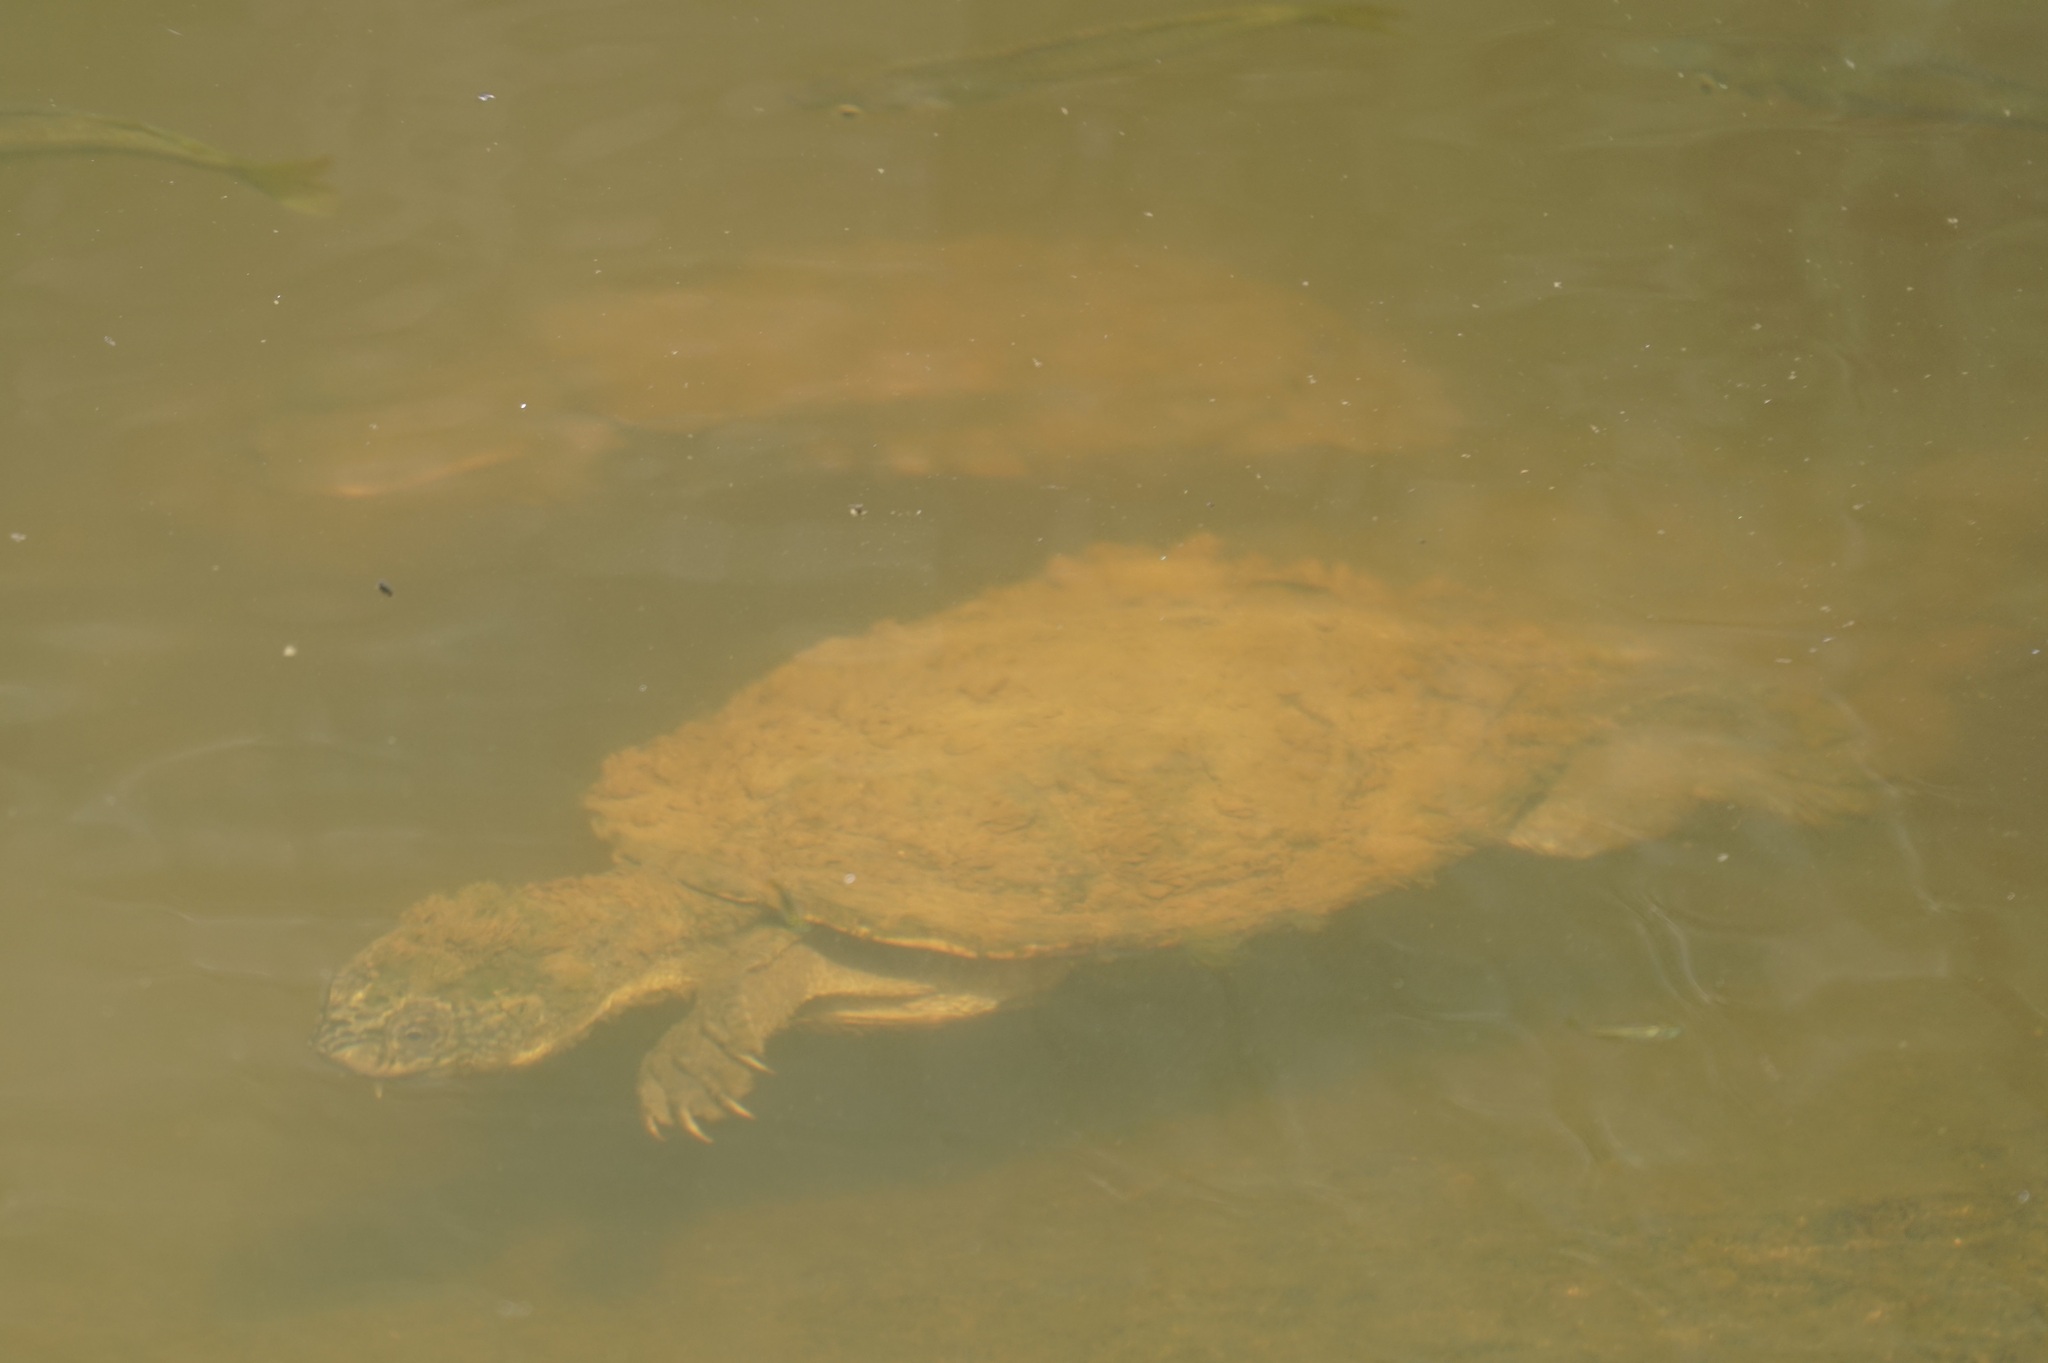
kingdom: Animalia
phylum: Chordata
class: Testudines
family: Chelidae
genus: Myuchelys
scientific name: Myuchelys latisternum
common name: Serrated snapping turtle
